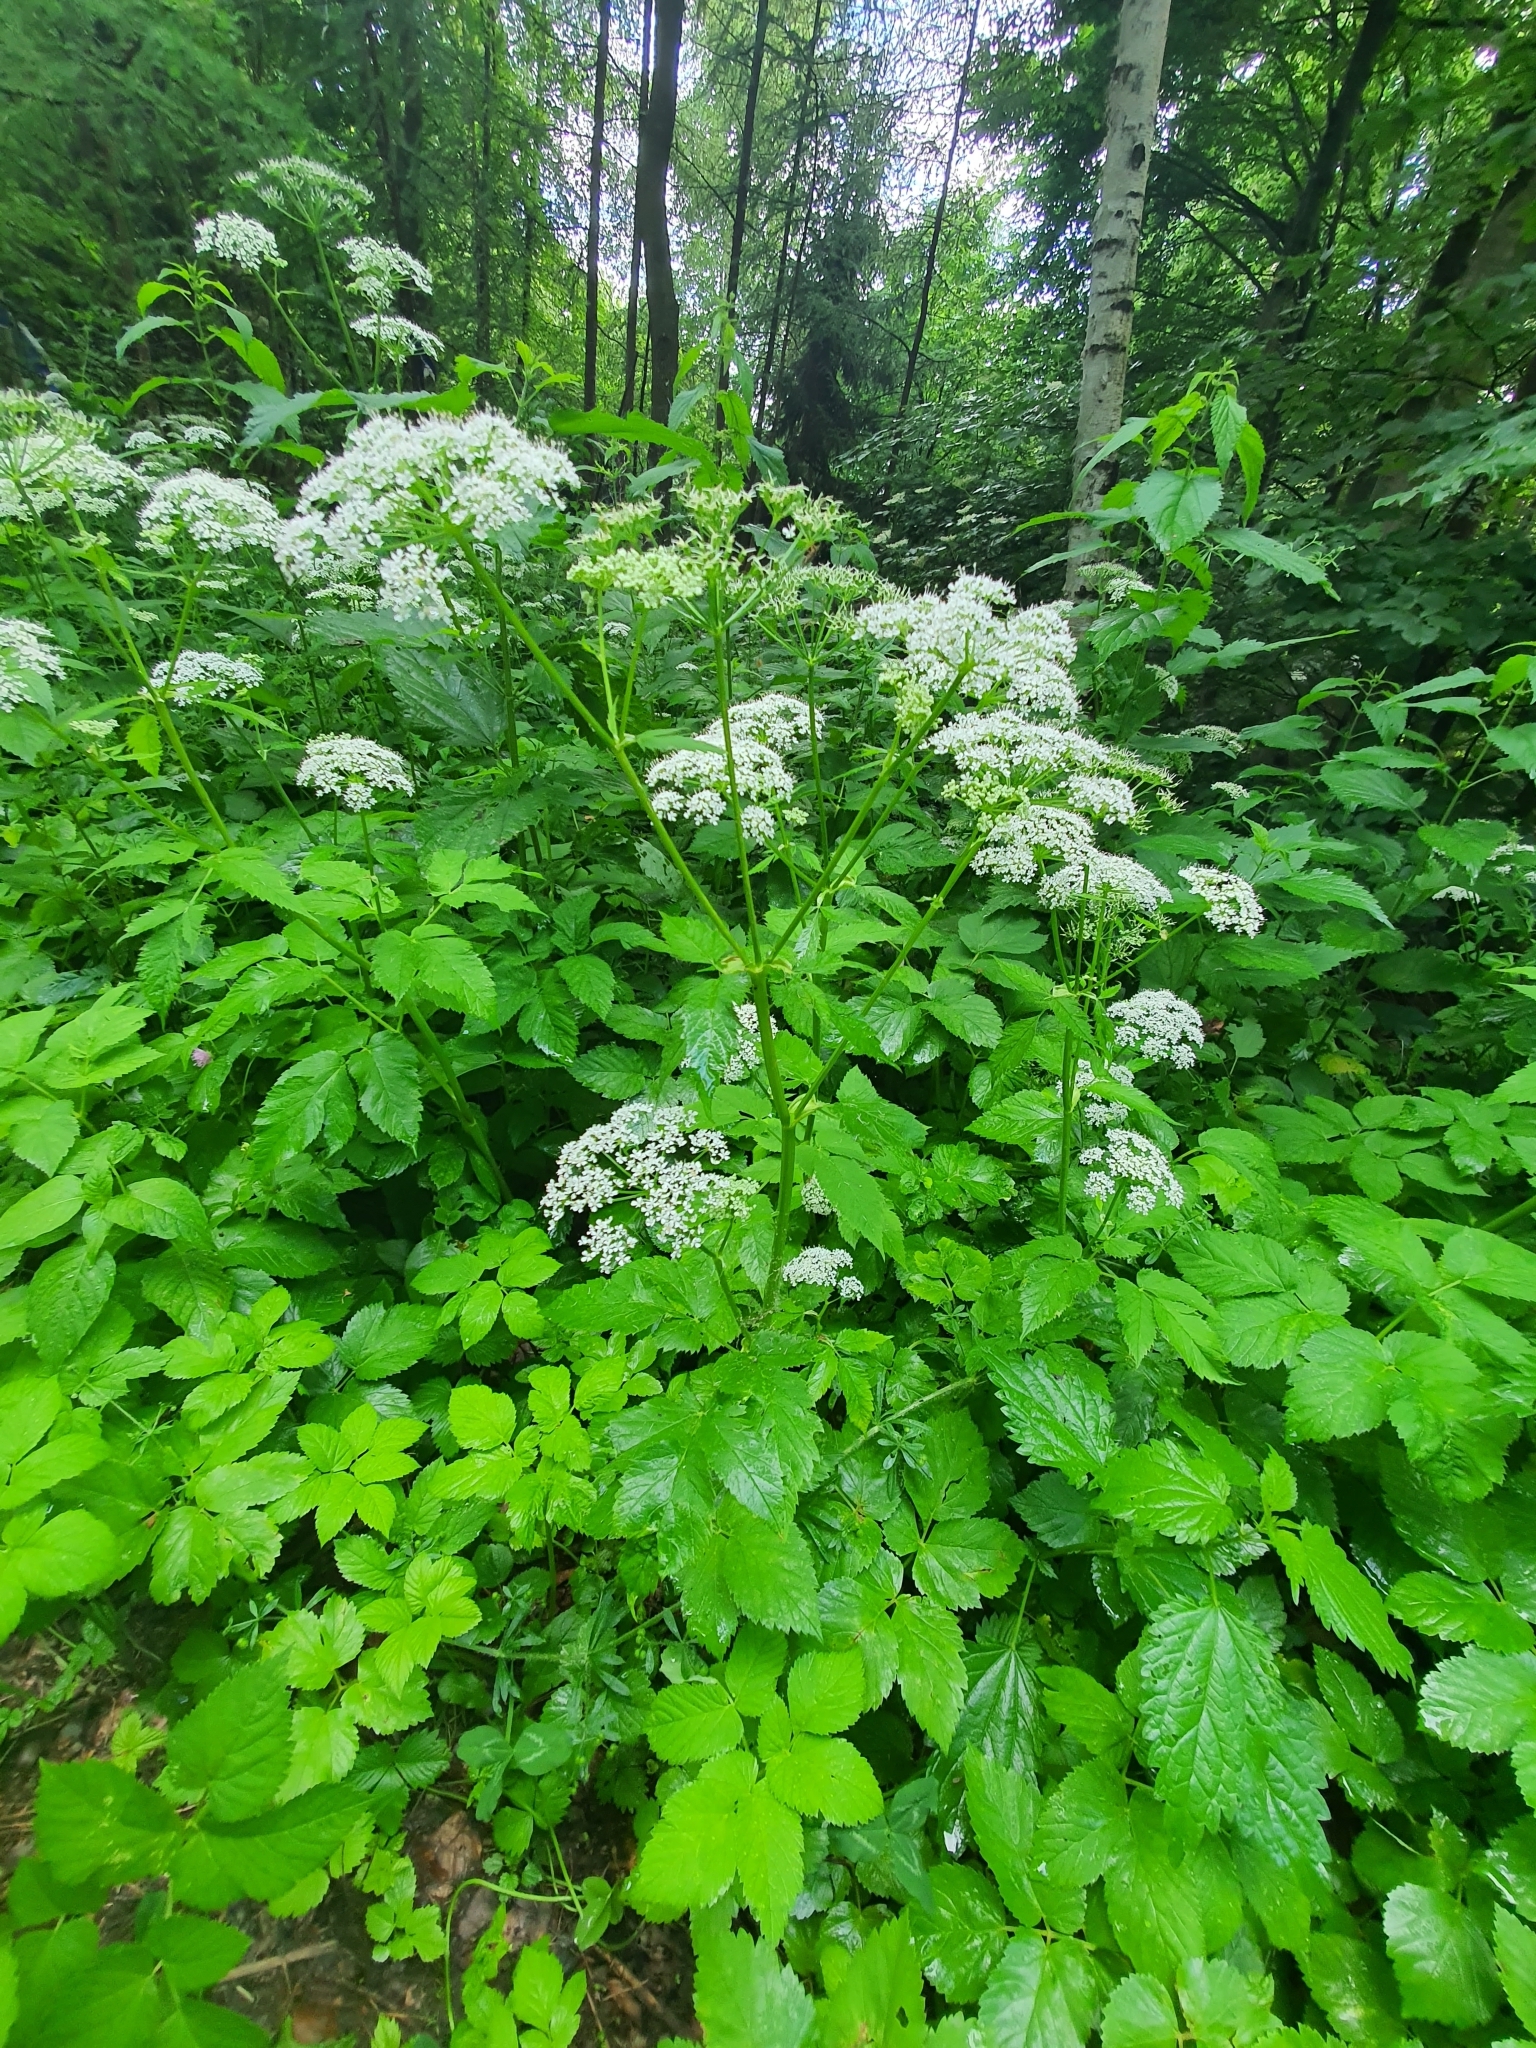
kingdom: Plantae
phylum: Tracheophyta
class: Magnoliopsida
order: Apiales
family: Apiaceae
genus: Aegopodium
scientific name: Aegopodium podagraria
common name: Ground-elder
